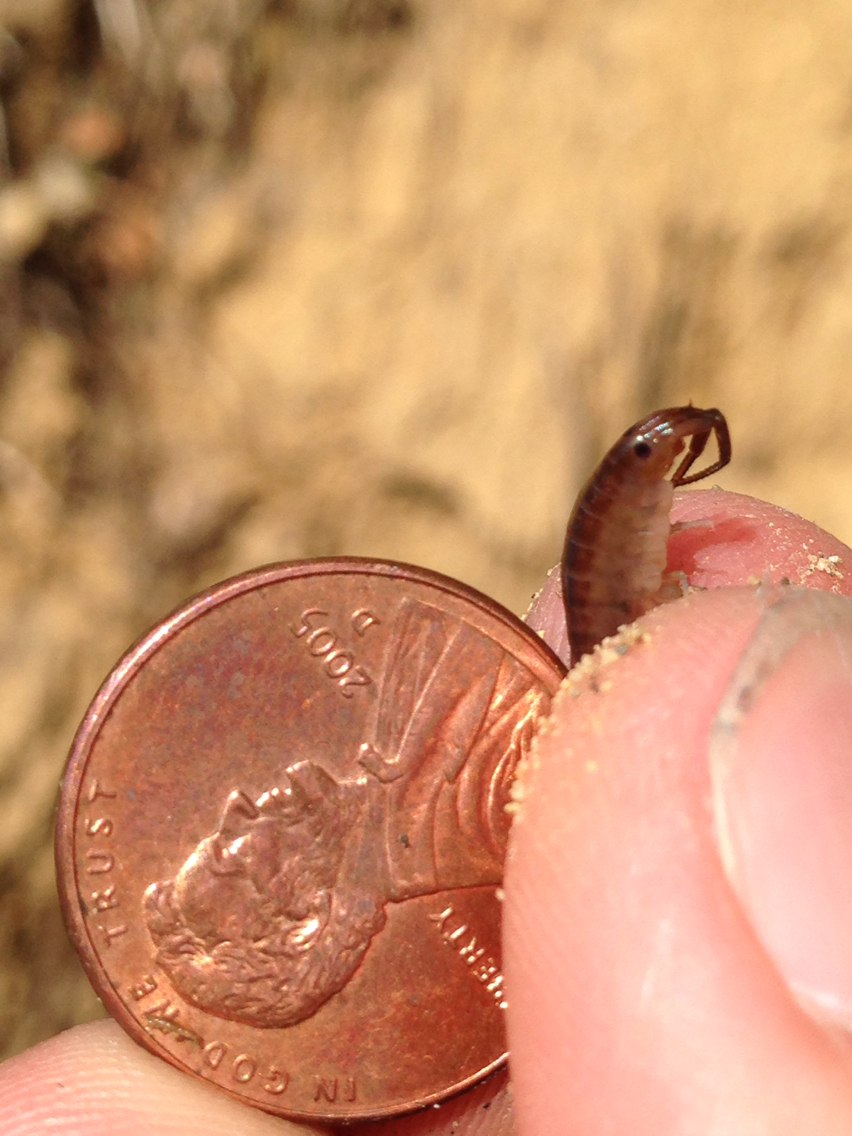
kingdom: Animalia
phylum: Arthropoda
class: Malacostraca
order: Amphipoda
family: Talitridae
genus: Bulychevia
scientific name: Bulychevia enigmatica
